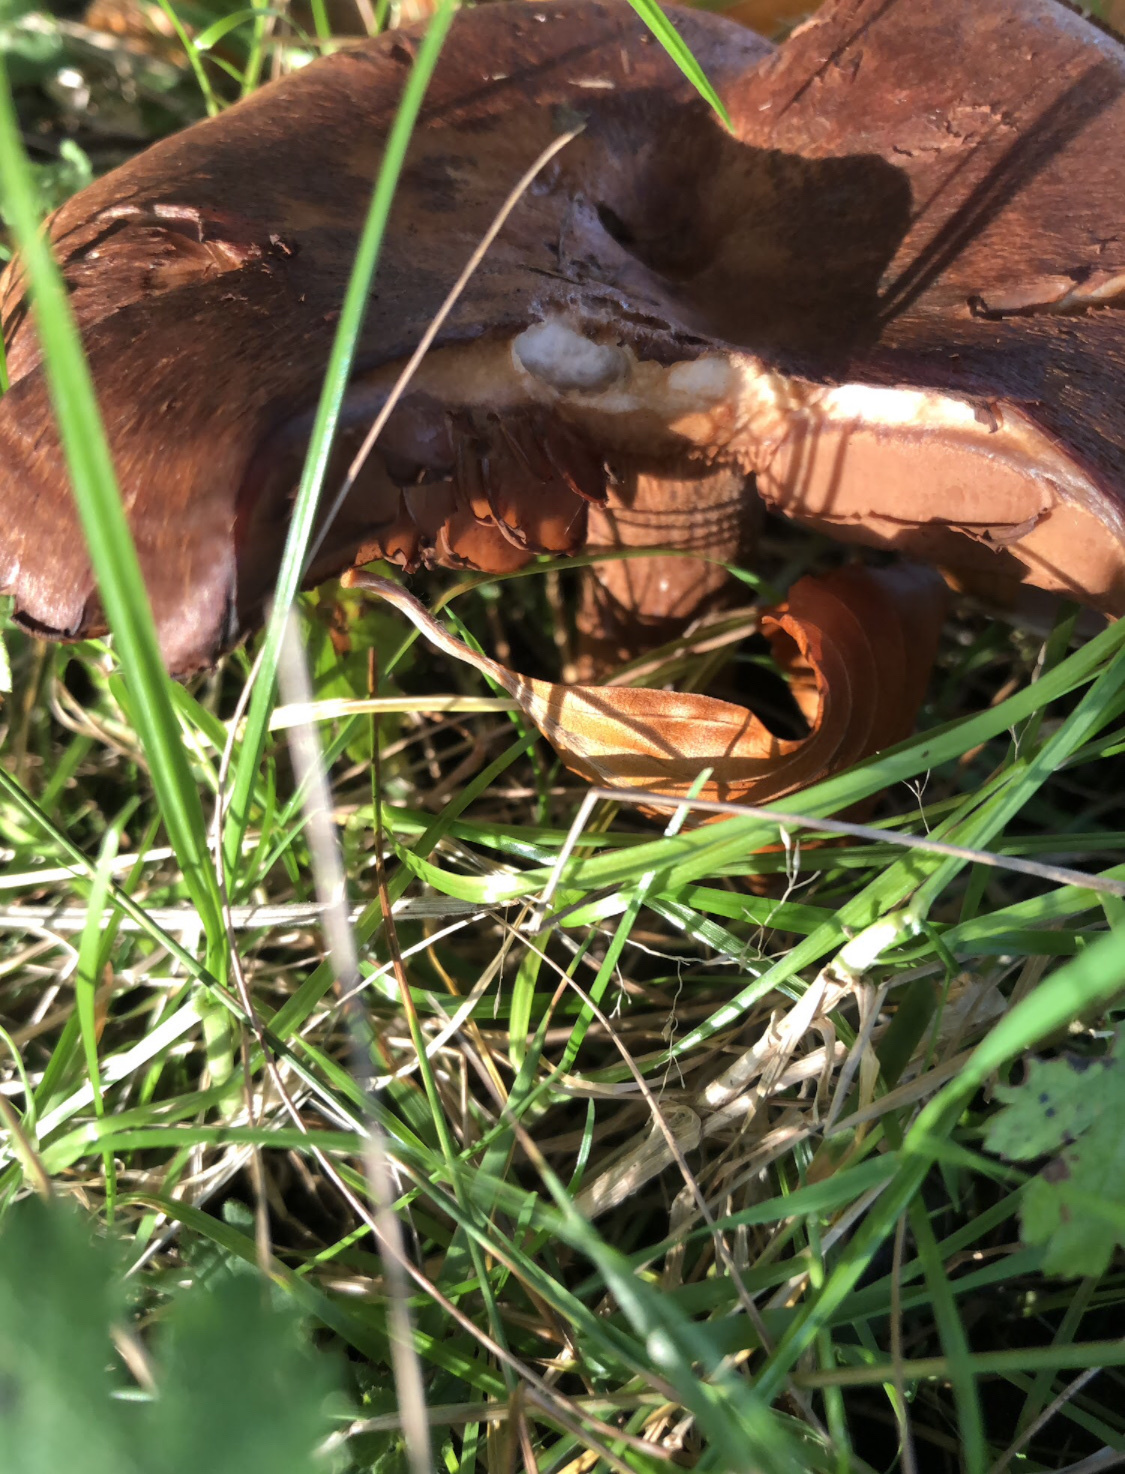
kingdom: Fungi
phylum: Basidiomycota
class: Agaricomycetes
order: Boletales
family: Paxillaceae
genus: Paxillus
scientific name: Paxillus involutus
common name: Brown roll rim
